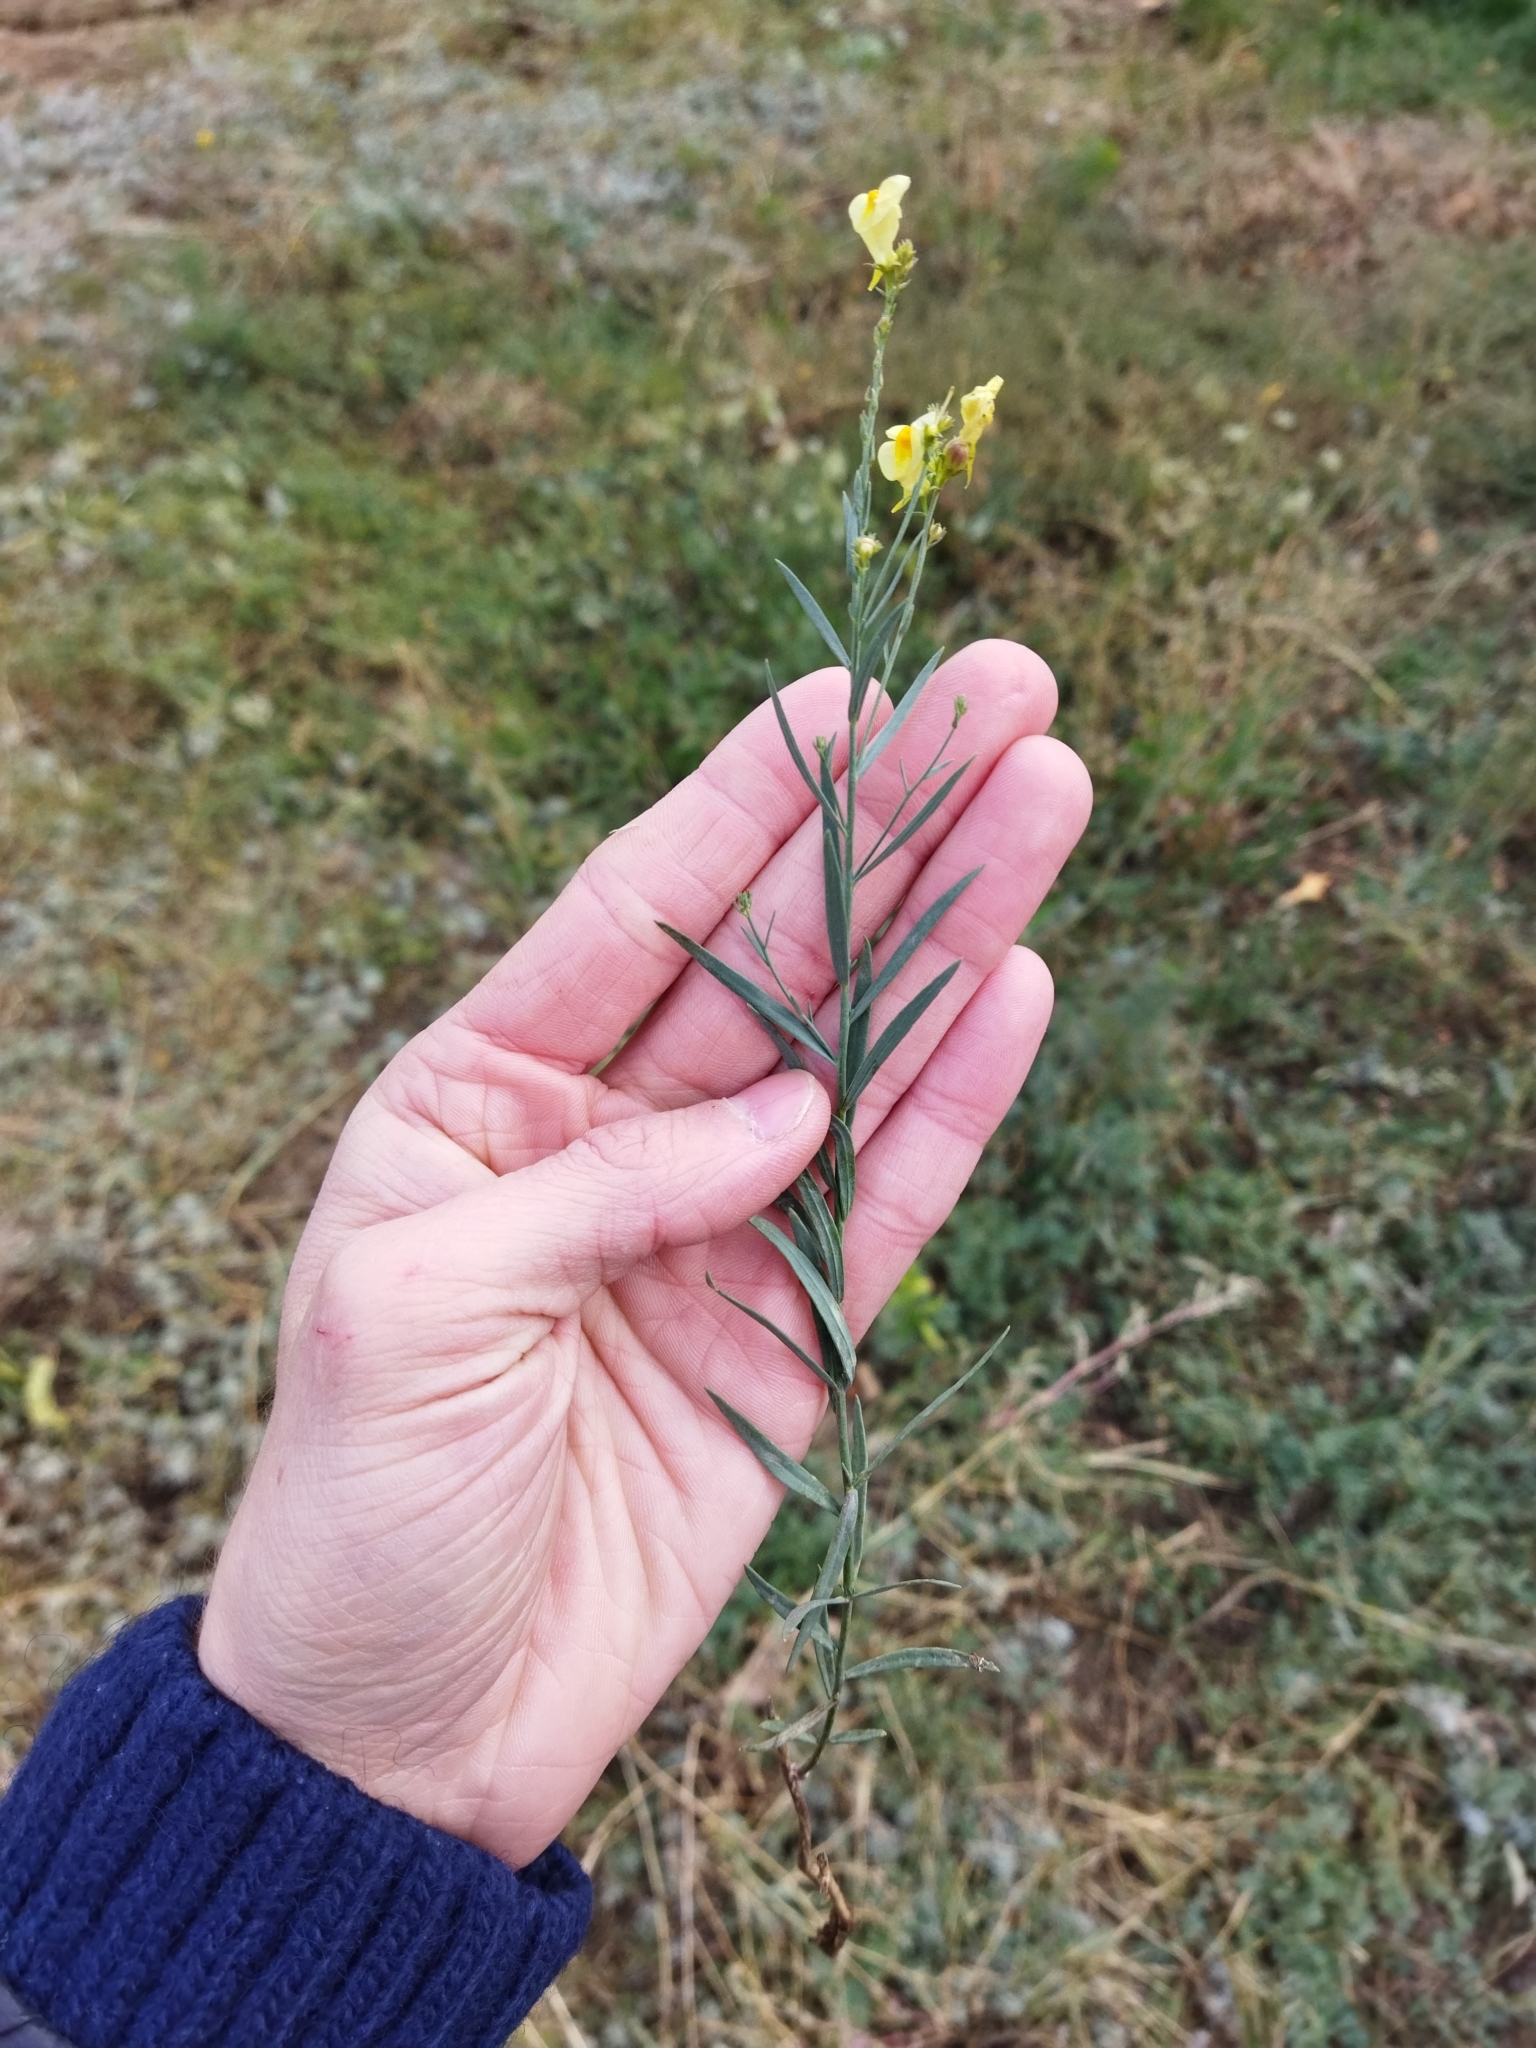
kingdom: Plantae
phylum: Tracheophyta
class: Magnoliopsida
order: Lamiales
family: Plantaginaceae
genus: Linaria
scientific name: Linaria vulgaris
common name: Butter and eggs
